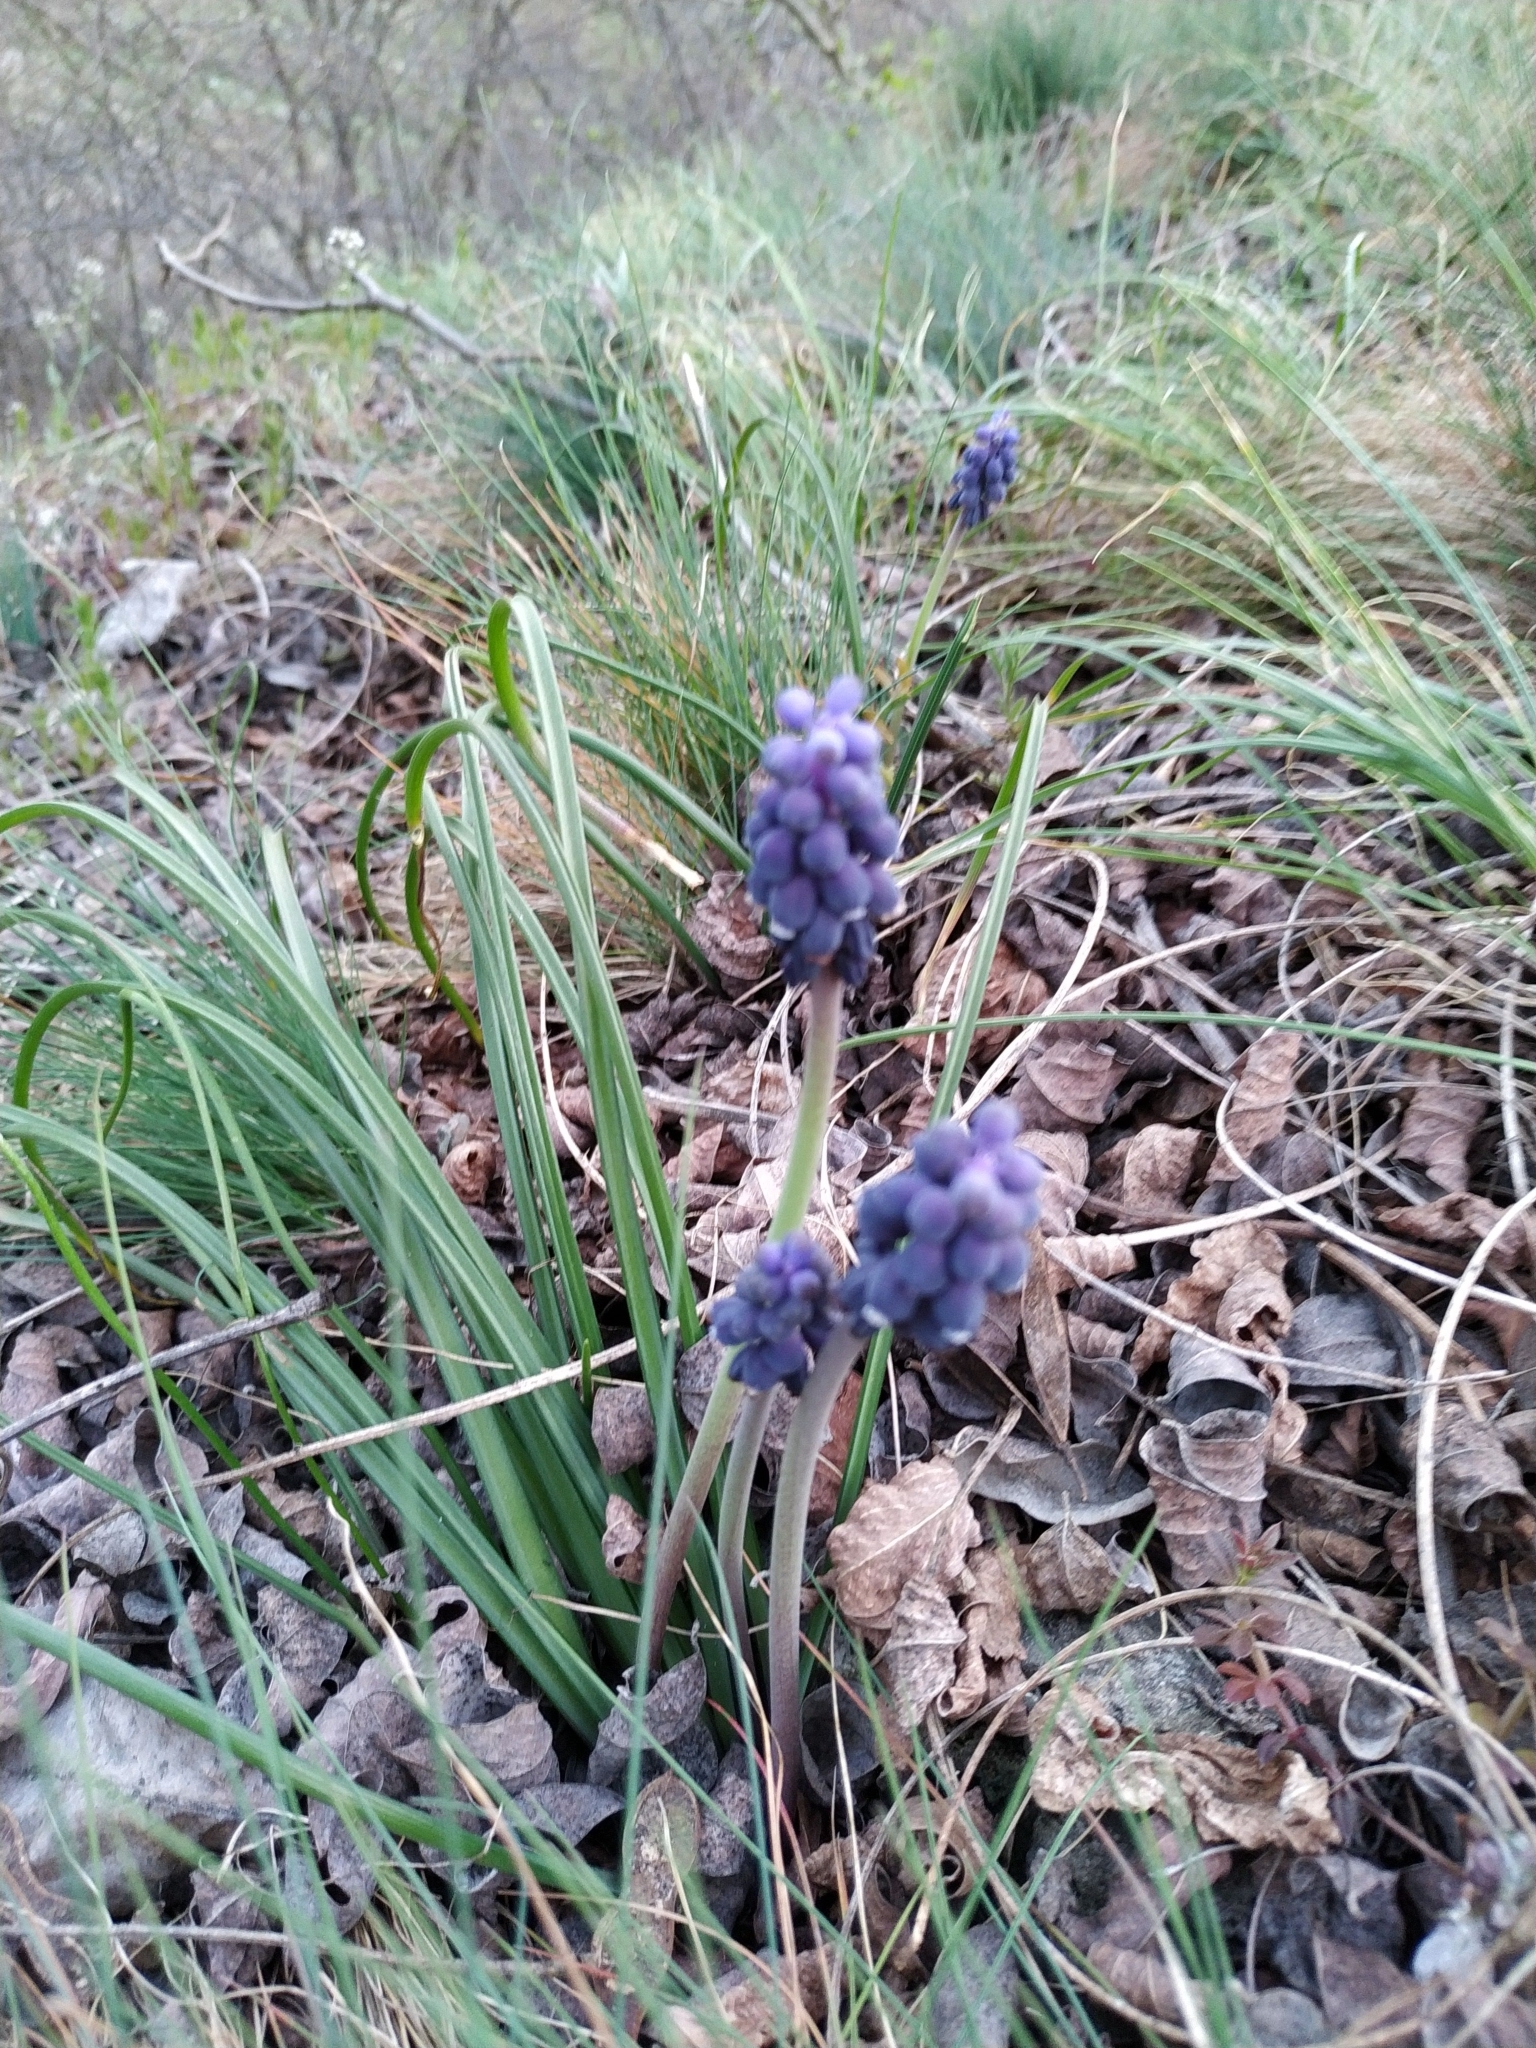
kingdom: Plantae
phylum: Tracheophyta
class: Liliopsida
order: Asparagales
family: Asparagaceae
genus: Muscari
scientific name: Muscari neglectum
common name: Grape-hyacinth
